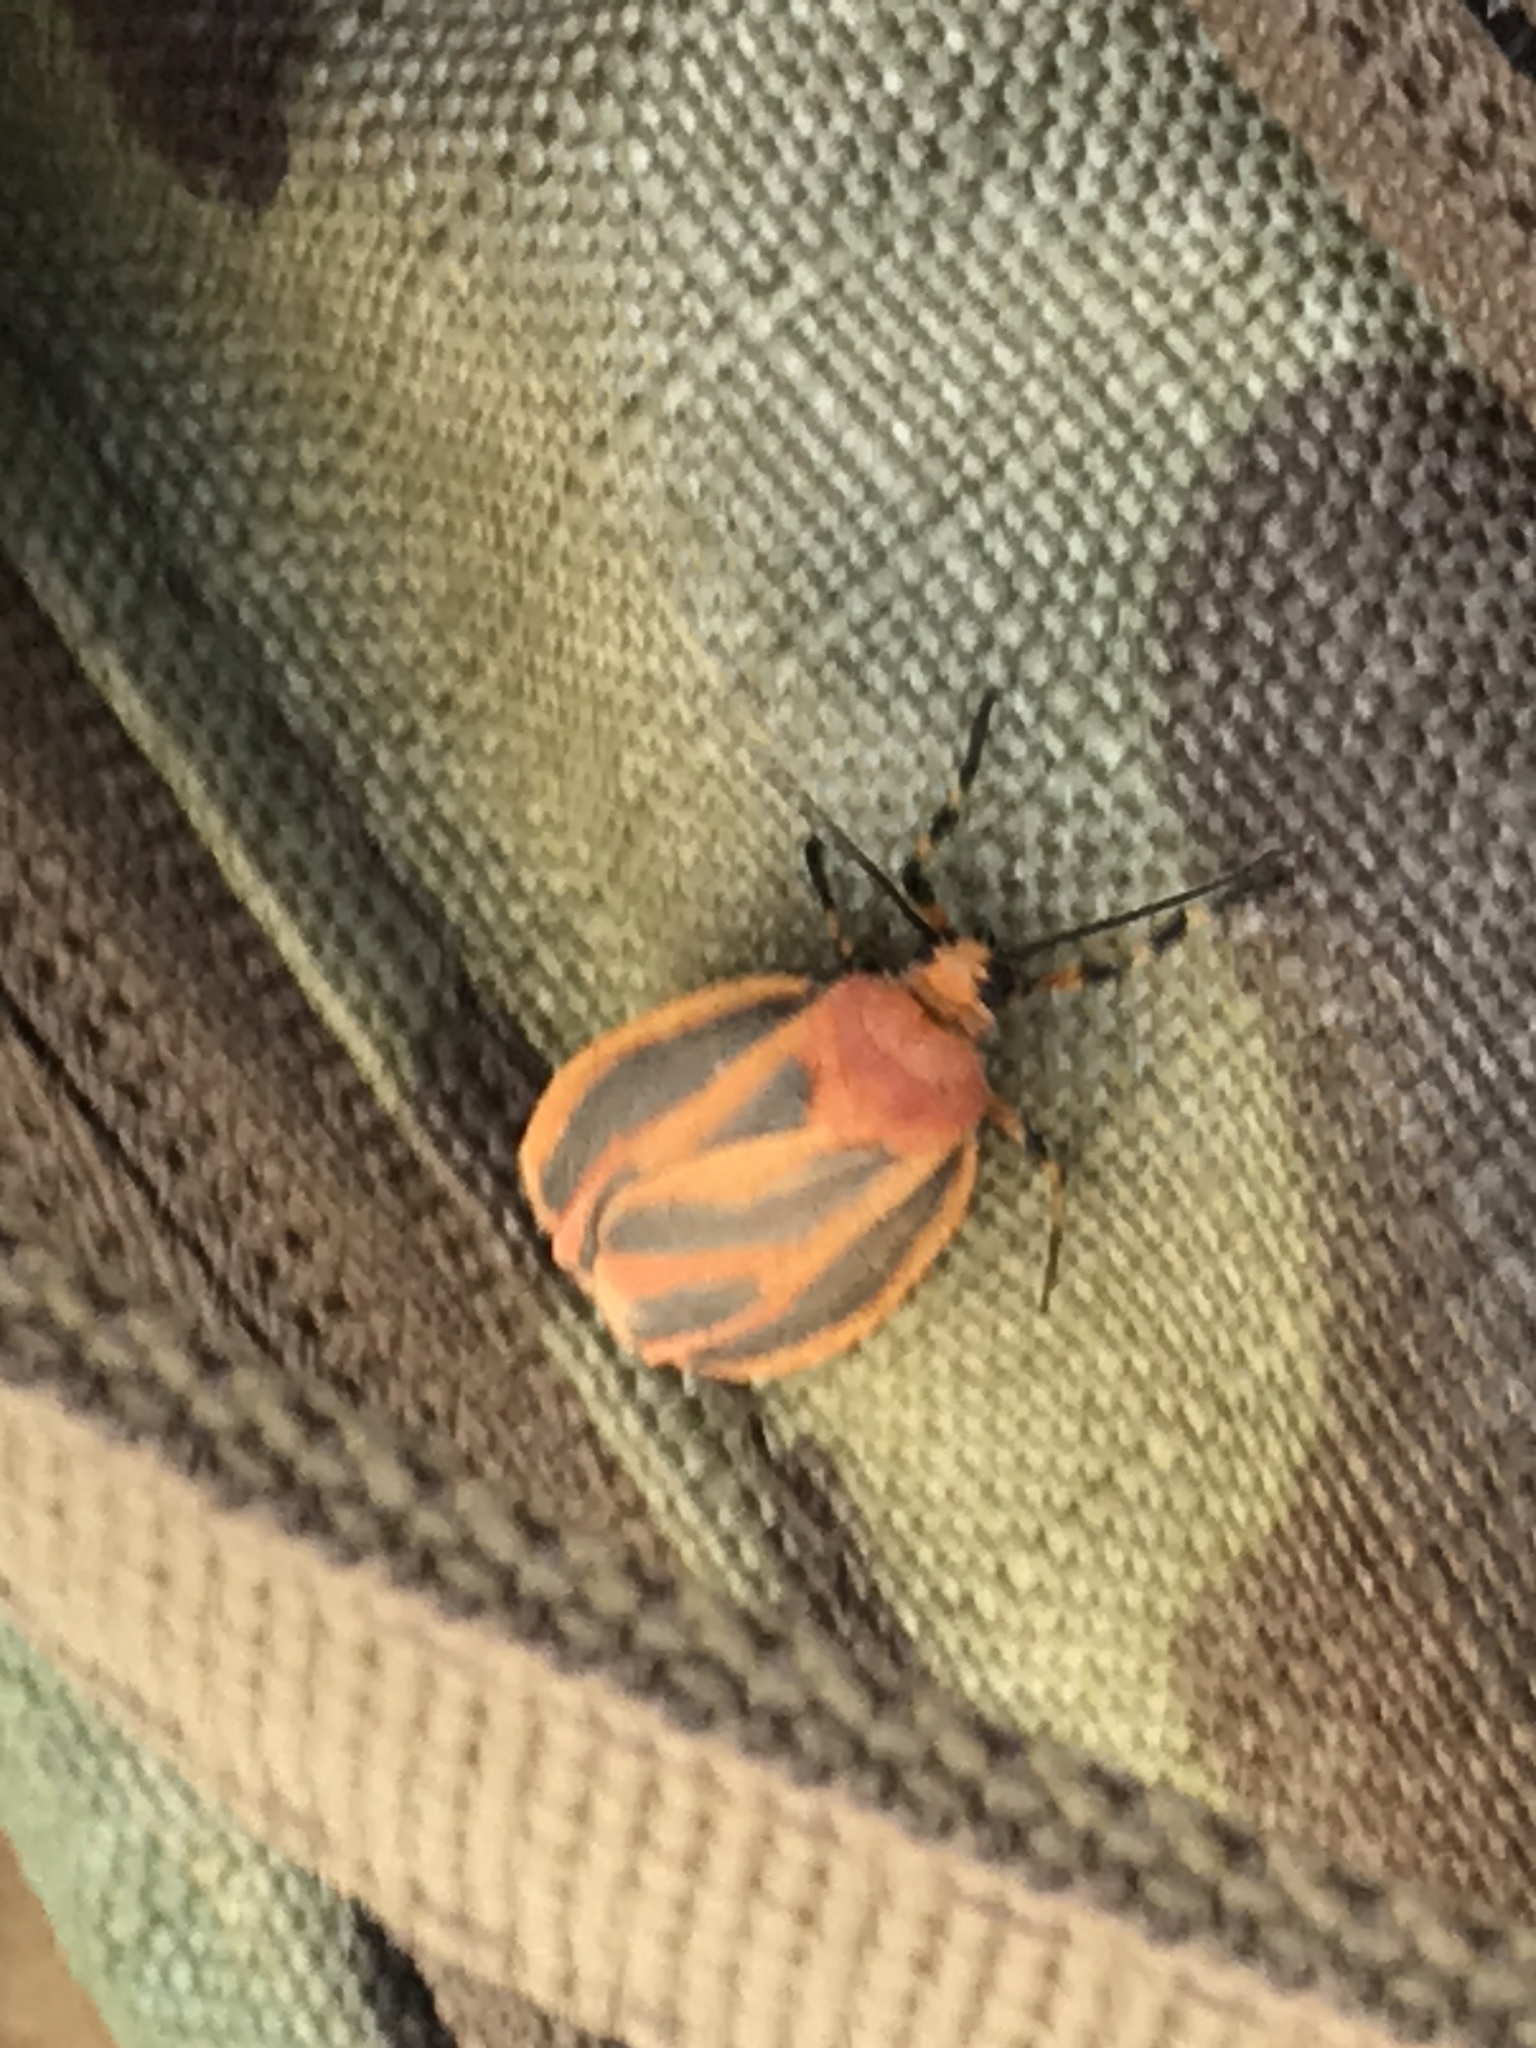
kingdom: Animalia
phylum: Arthropoda
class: Insecta
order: Lepidoptera
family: Erebidae
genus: Hypoprepia
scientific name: Hypoprepia fucosa
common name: Painted lichen moth
